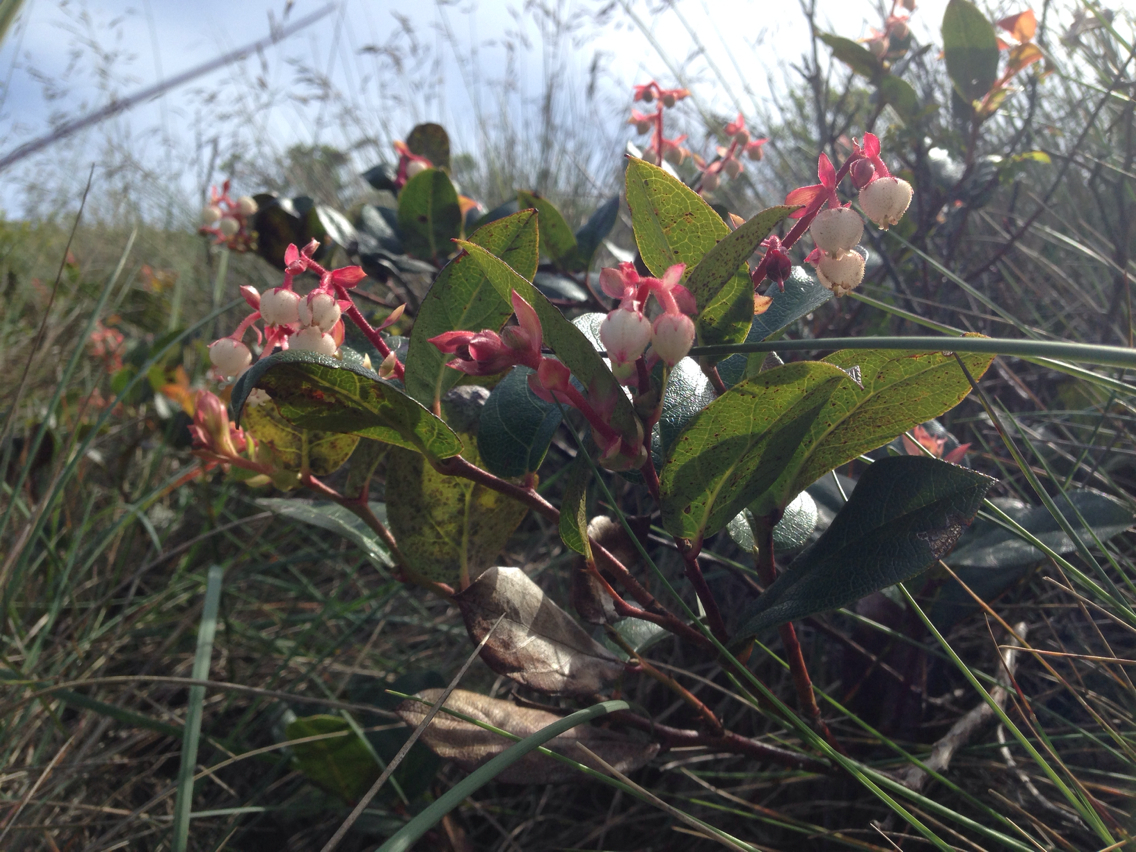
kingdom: Plantae
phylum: Tracheophyta
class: Magnoliopsida
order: Ericales
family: Ericaceae
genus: Gaultheria
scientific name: Gaultheria shallon
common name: Shallon
